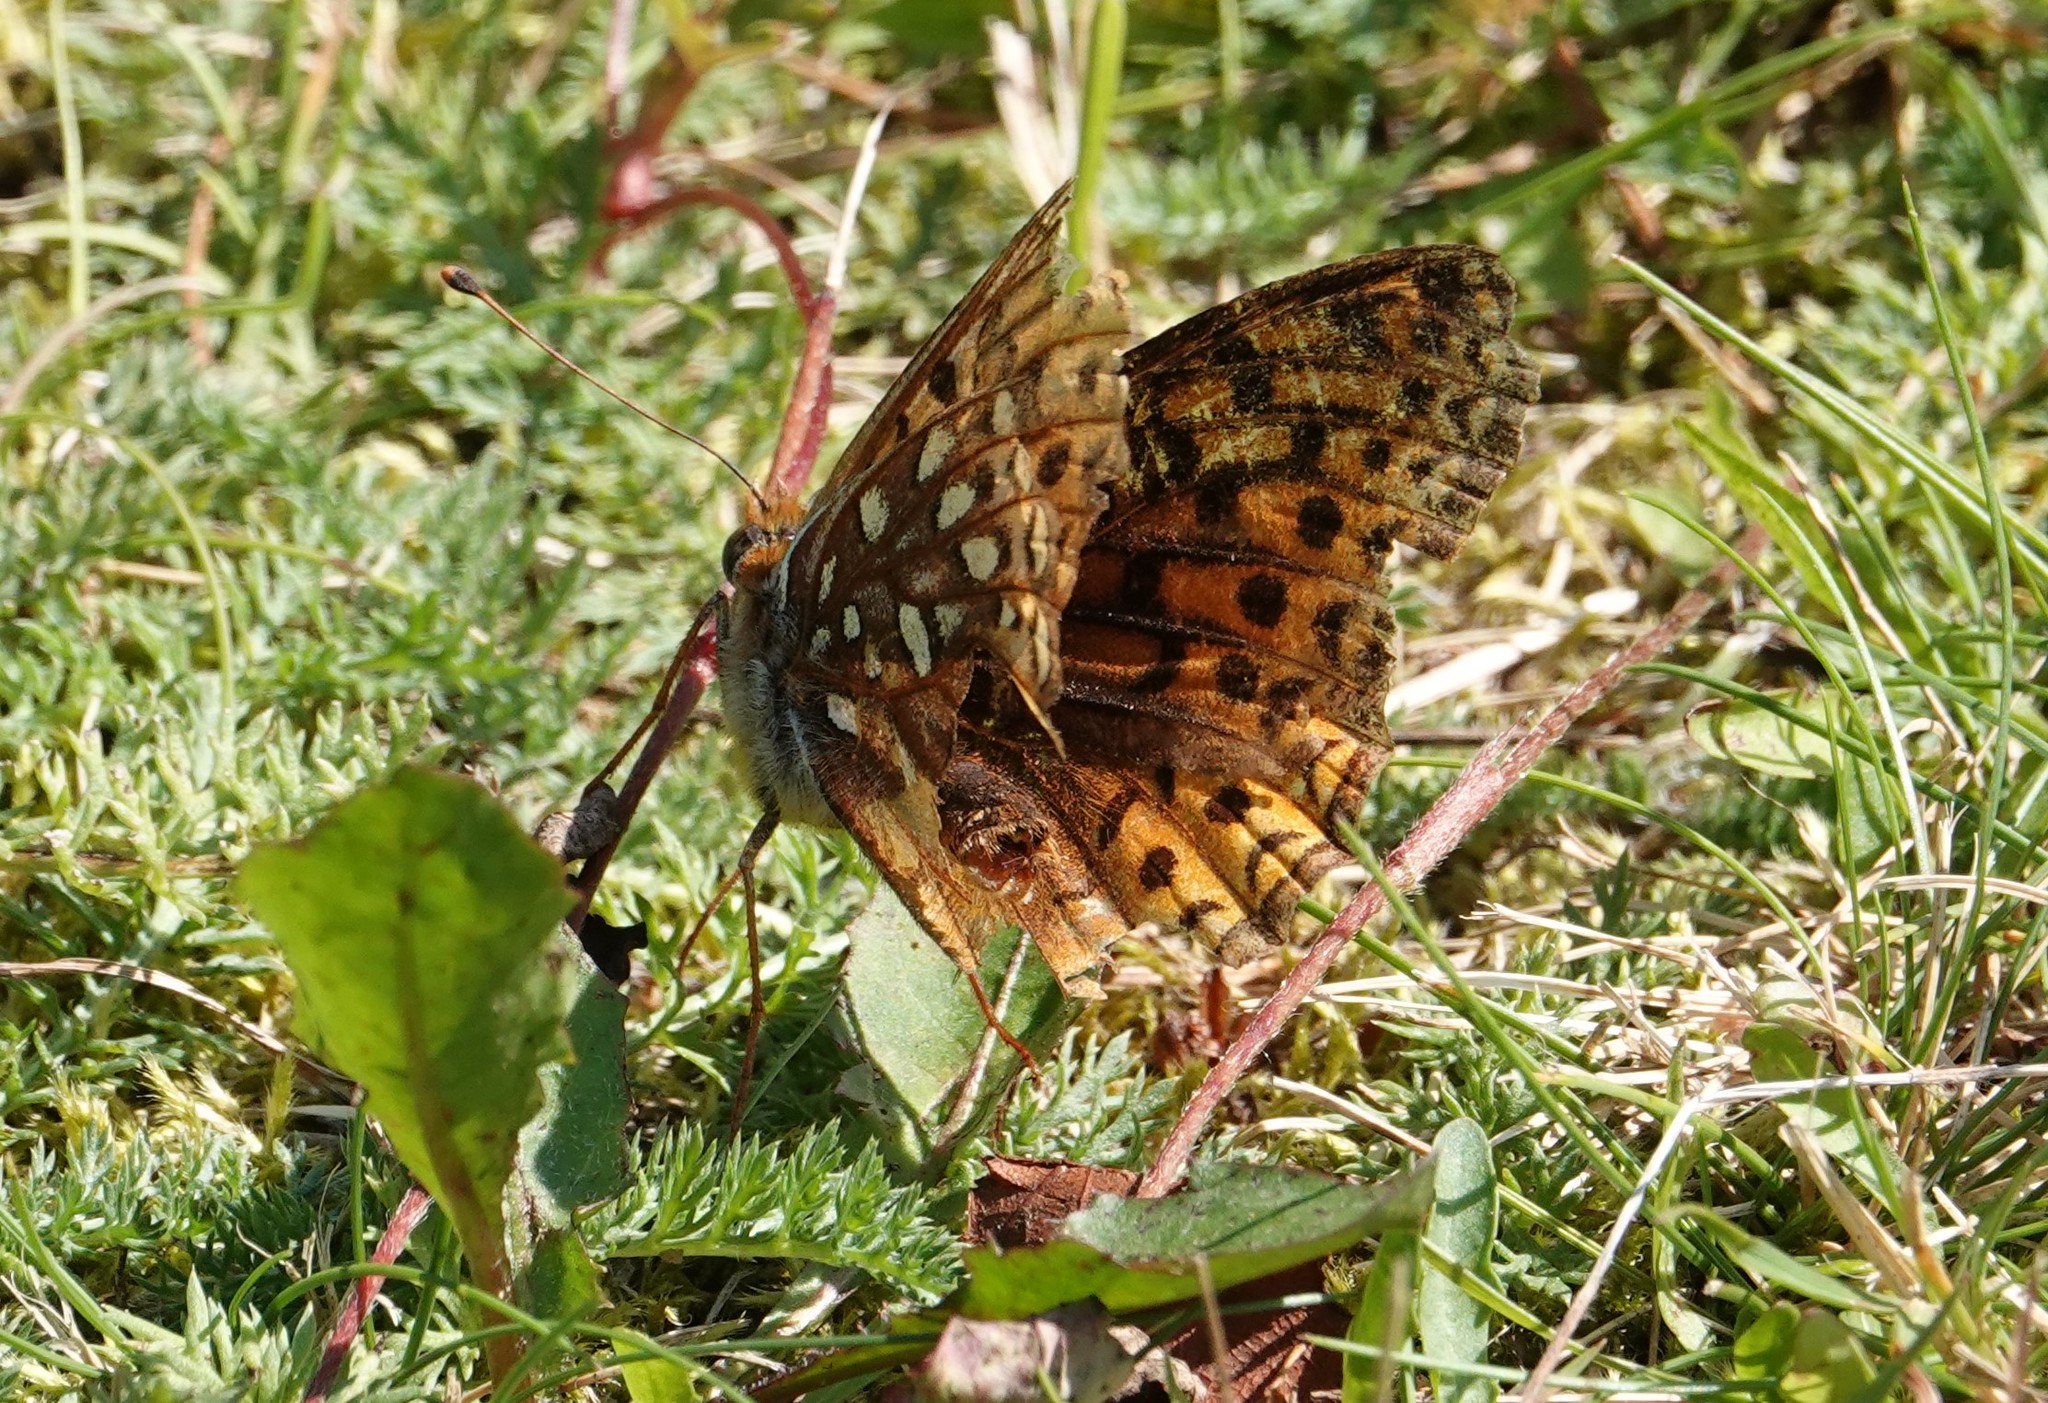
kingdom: Animalia
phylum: Arthropoda
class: Insecta
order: Lepidoptera
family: Nymphalidae
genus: Speyeria
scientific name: Speyeria atlantis
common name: Atlantis fritillary
